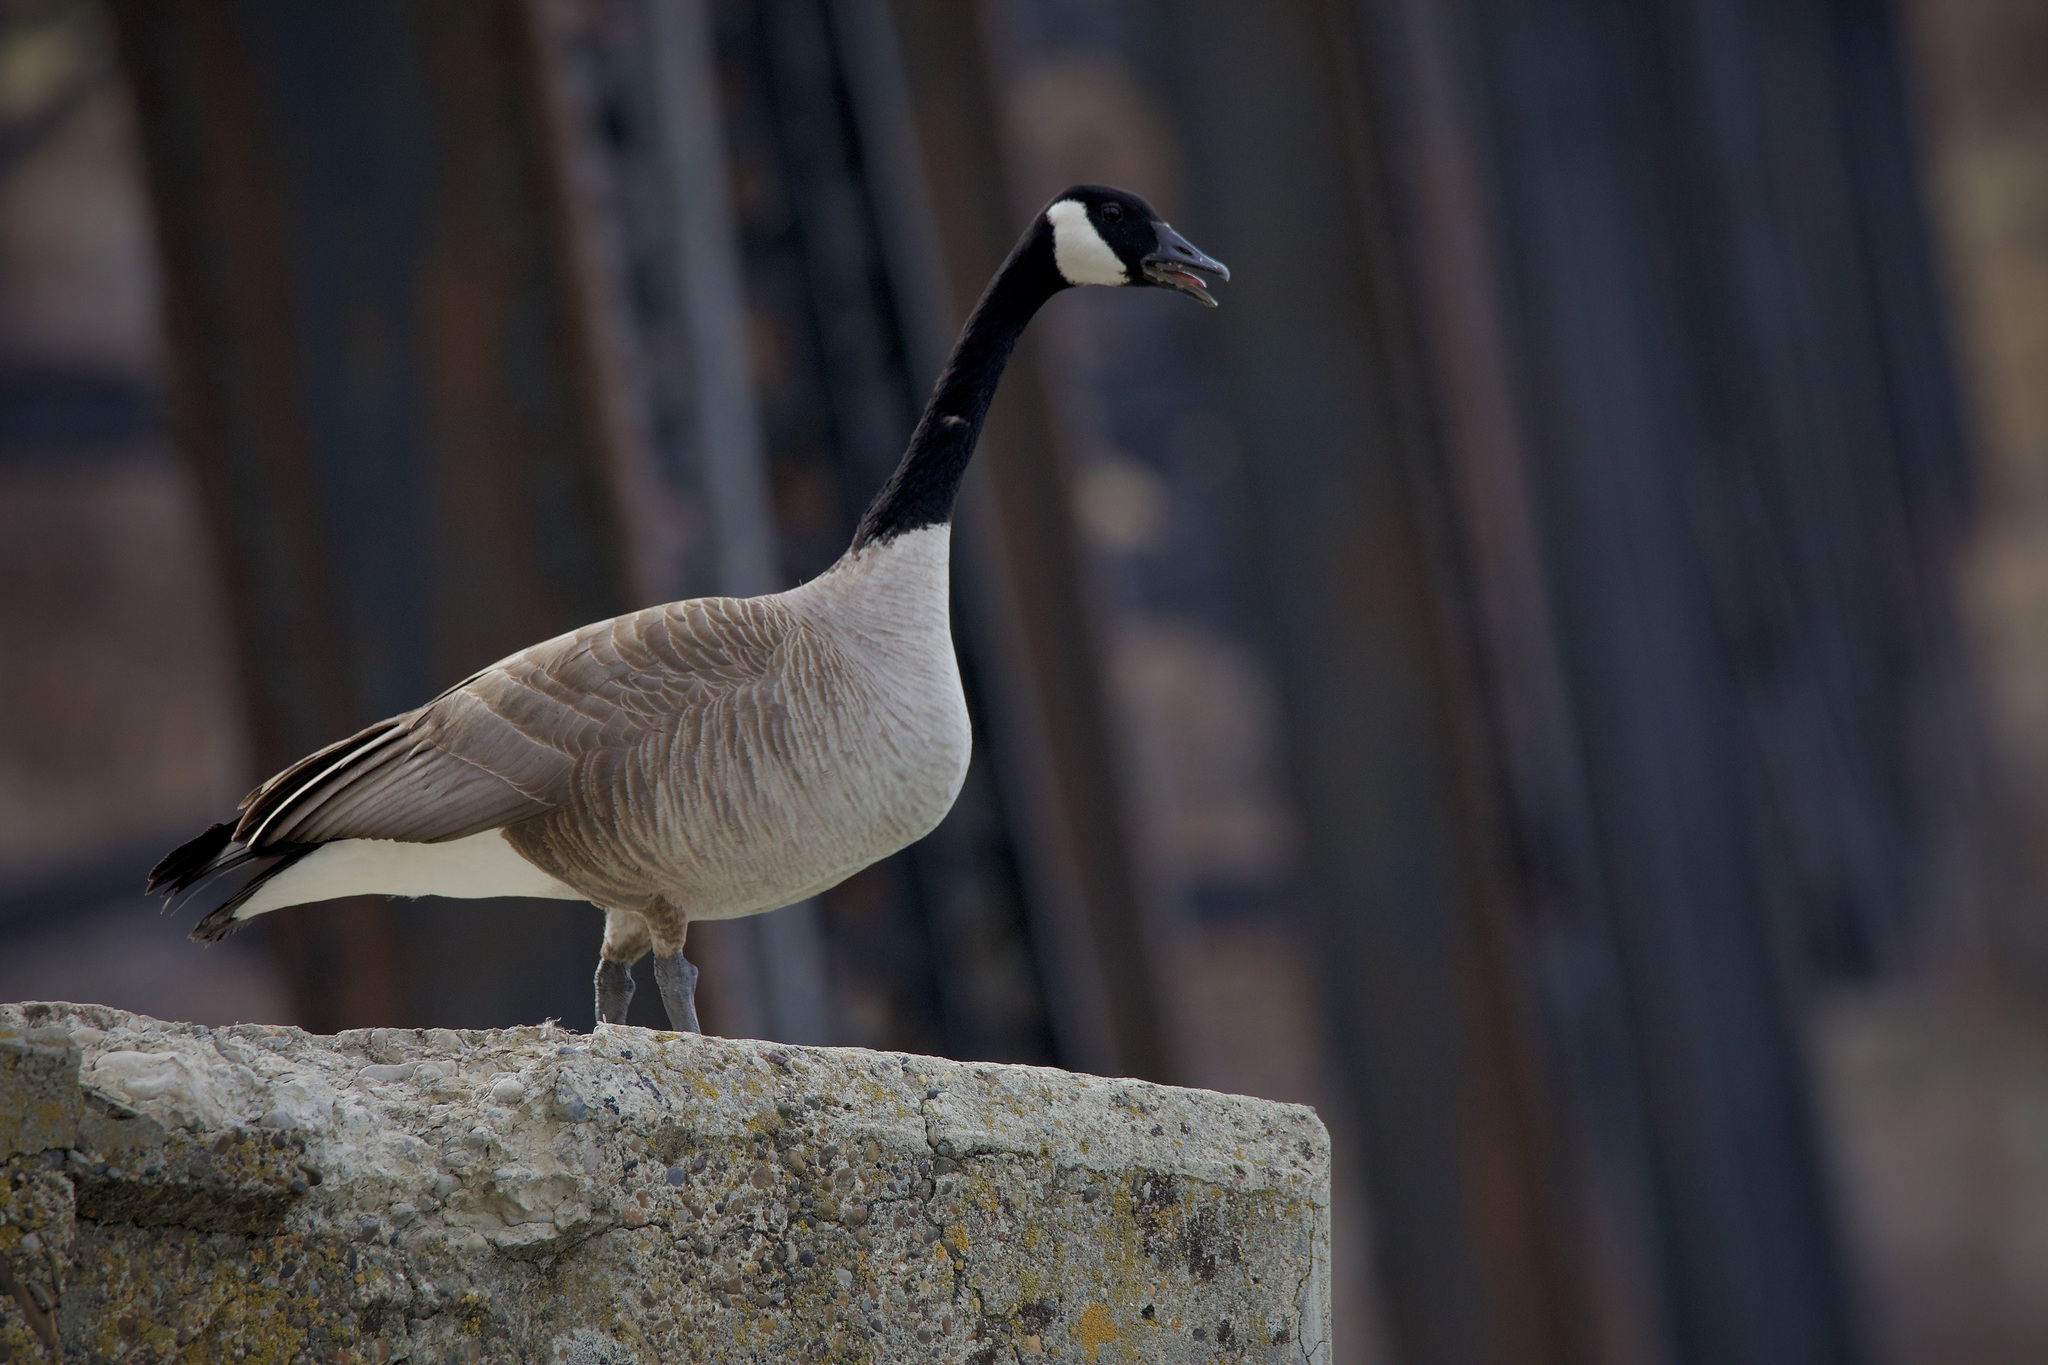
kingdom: Animalia
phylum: Chordata
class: Aves
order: Anseriformes
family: Anatidae
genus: Branta
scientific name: Branta canadensis
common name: Canada goose
